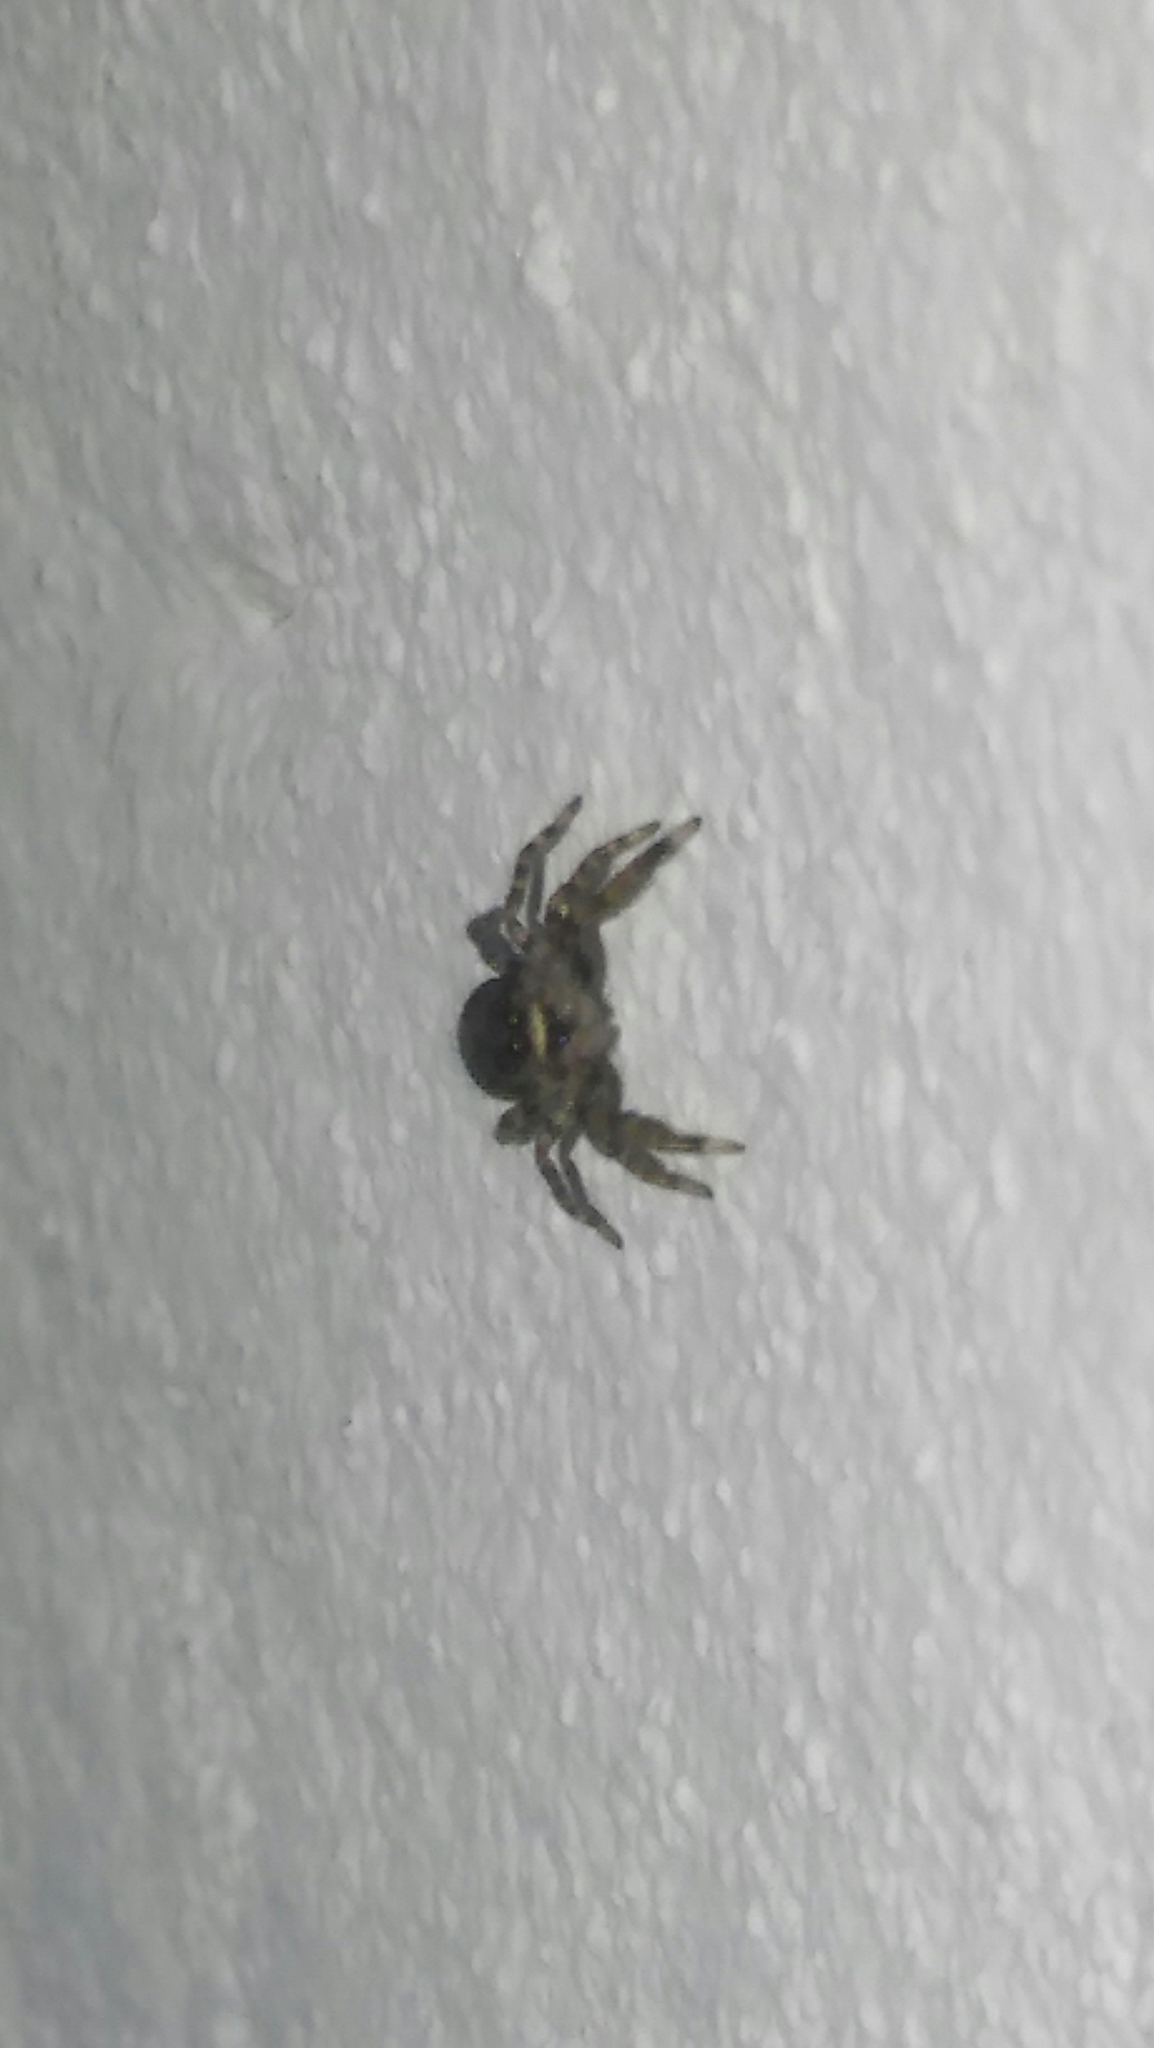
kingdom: Animalia
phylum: Arthropoda
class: Arachnida
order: Araneae
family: Salticidae
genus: Titanattus
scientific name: Titanattus andinus
